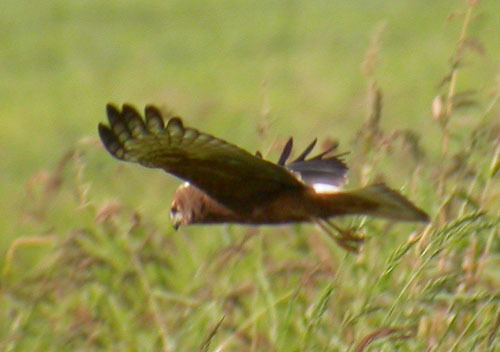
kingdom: Animalia
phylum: Chordata
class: Aves
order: Accipitriformes
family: Accipitridae
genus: Circus
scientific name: Circus melanoleucos
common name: Pied harrier
